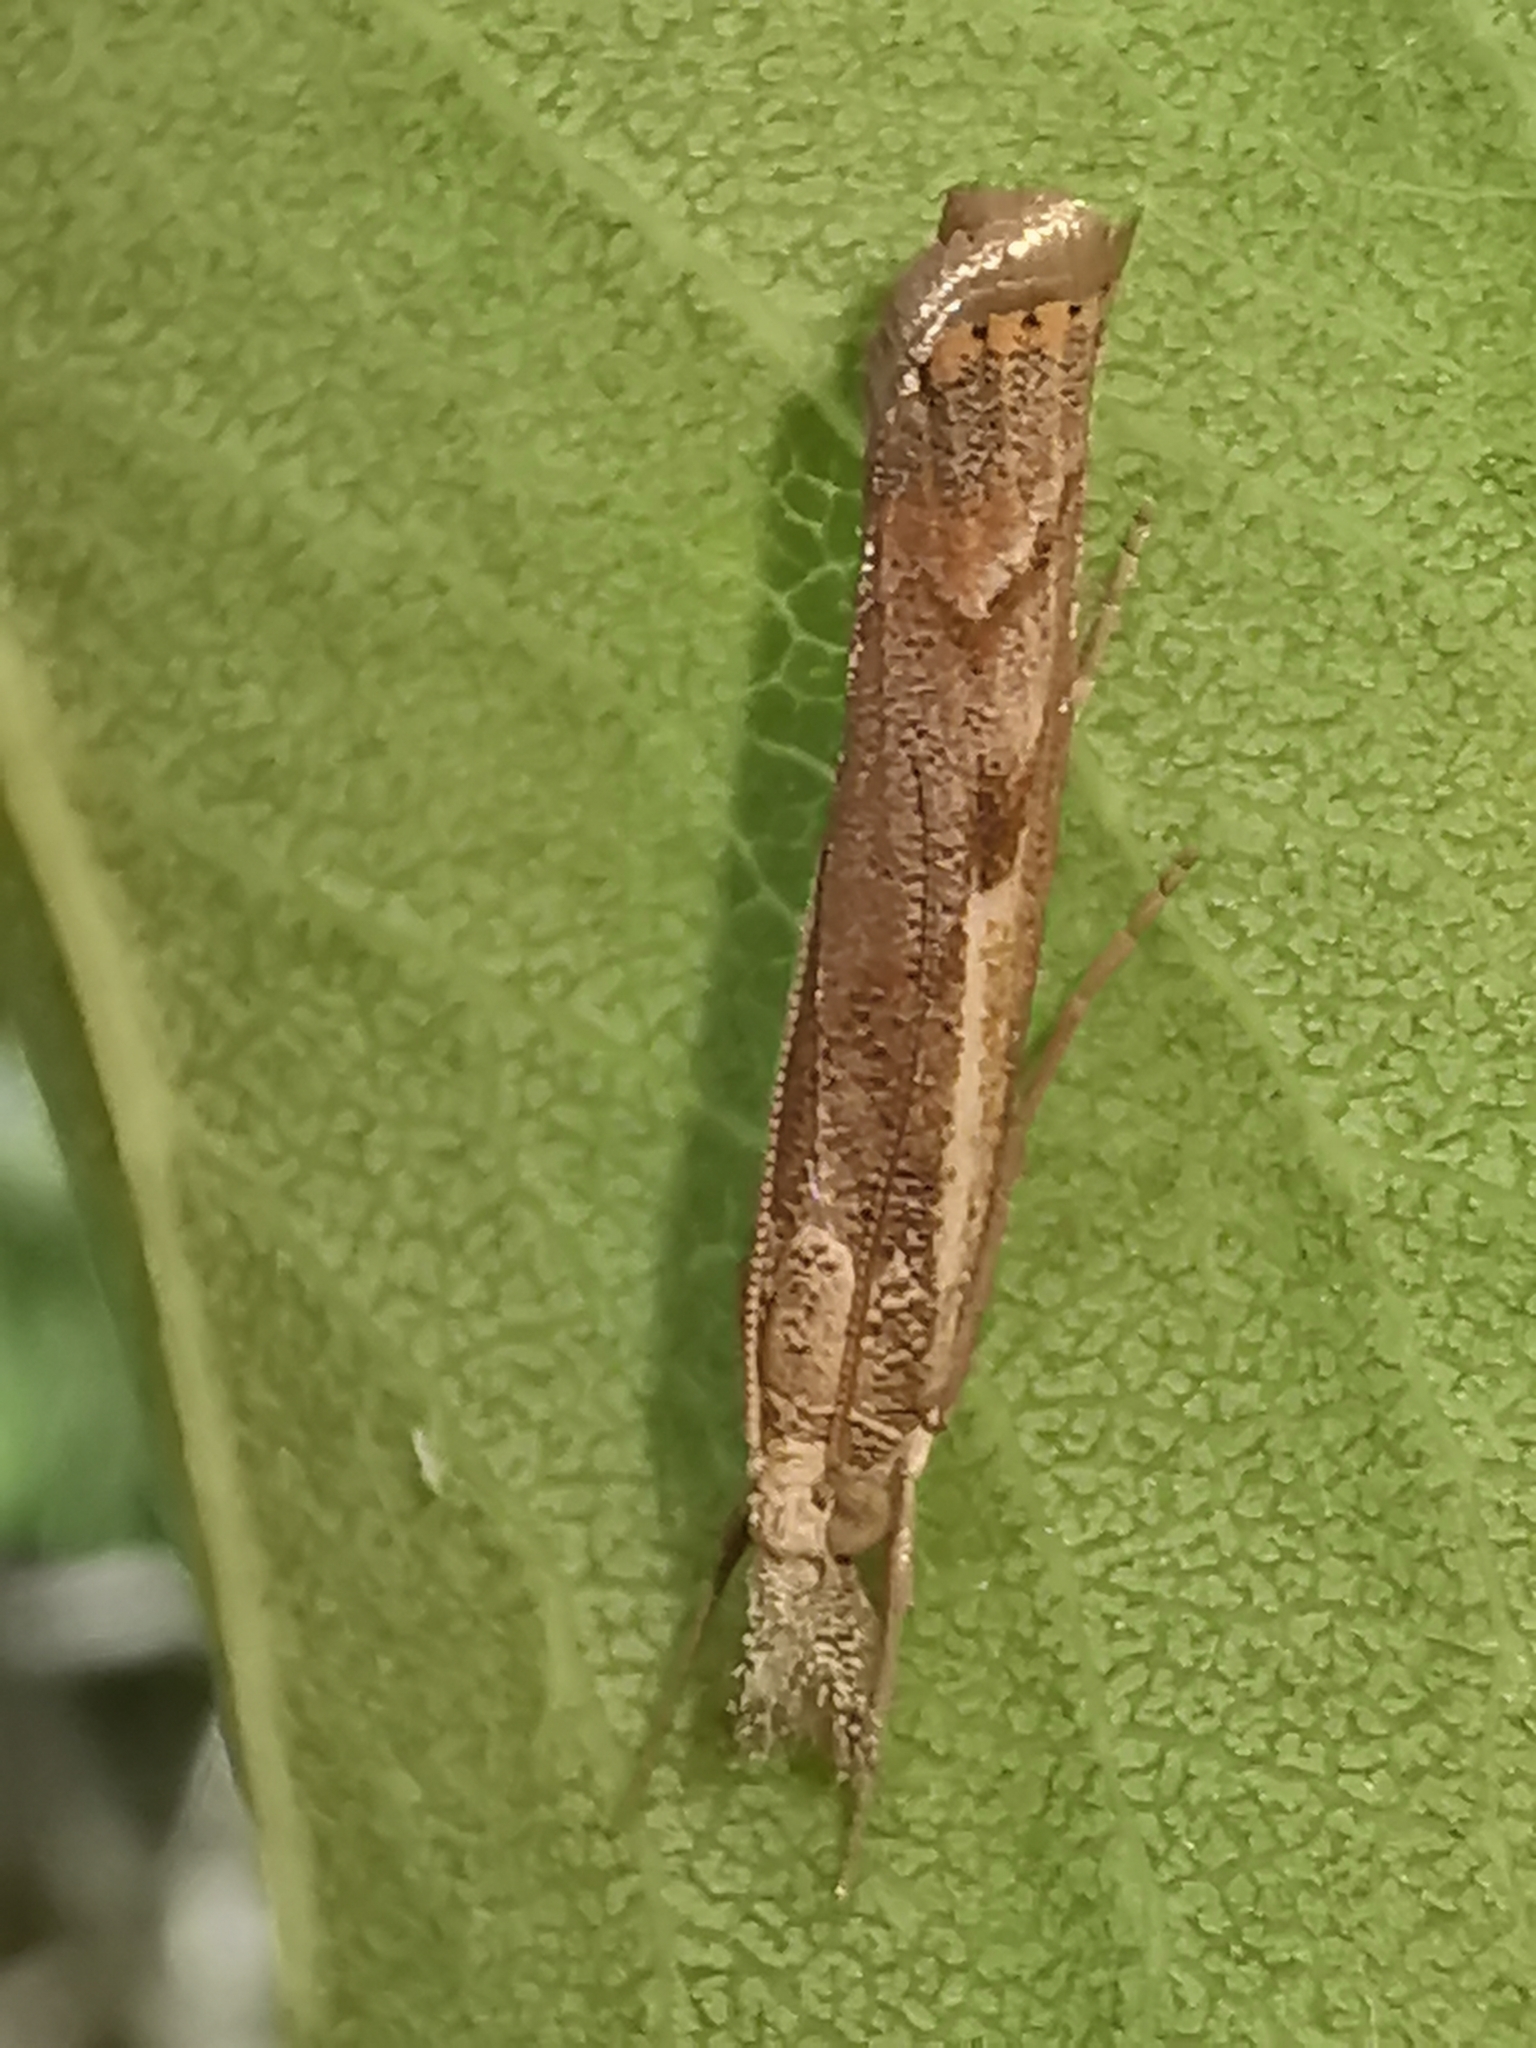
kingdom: Animalia
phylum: Arthropoda
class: Insecta
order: Lepidoptera
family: Crambidae
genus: Agriphila
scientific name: Agriphila geniculea
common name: Elbow-stripe grass-veneer
